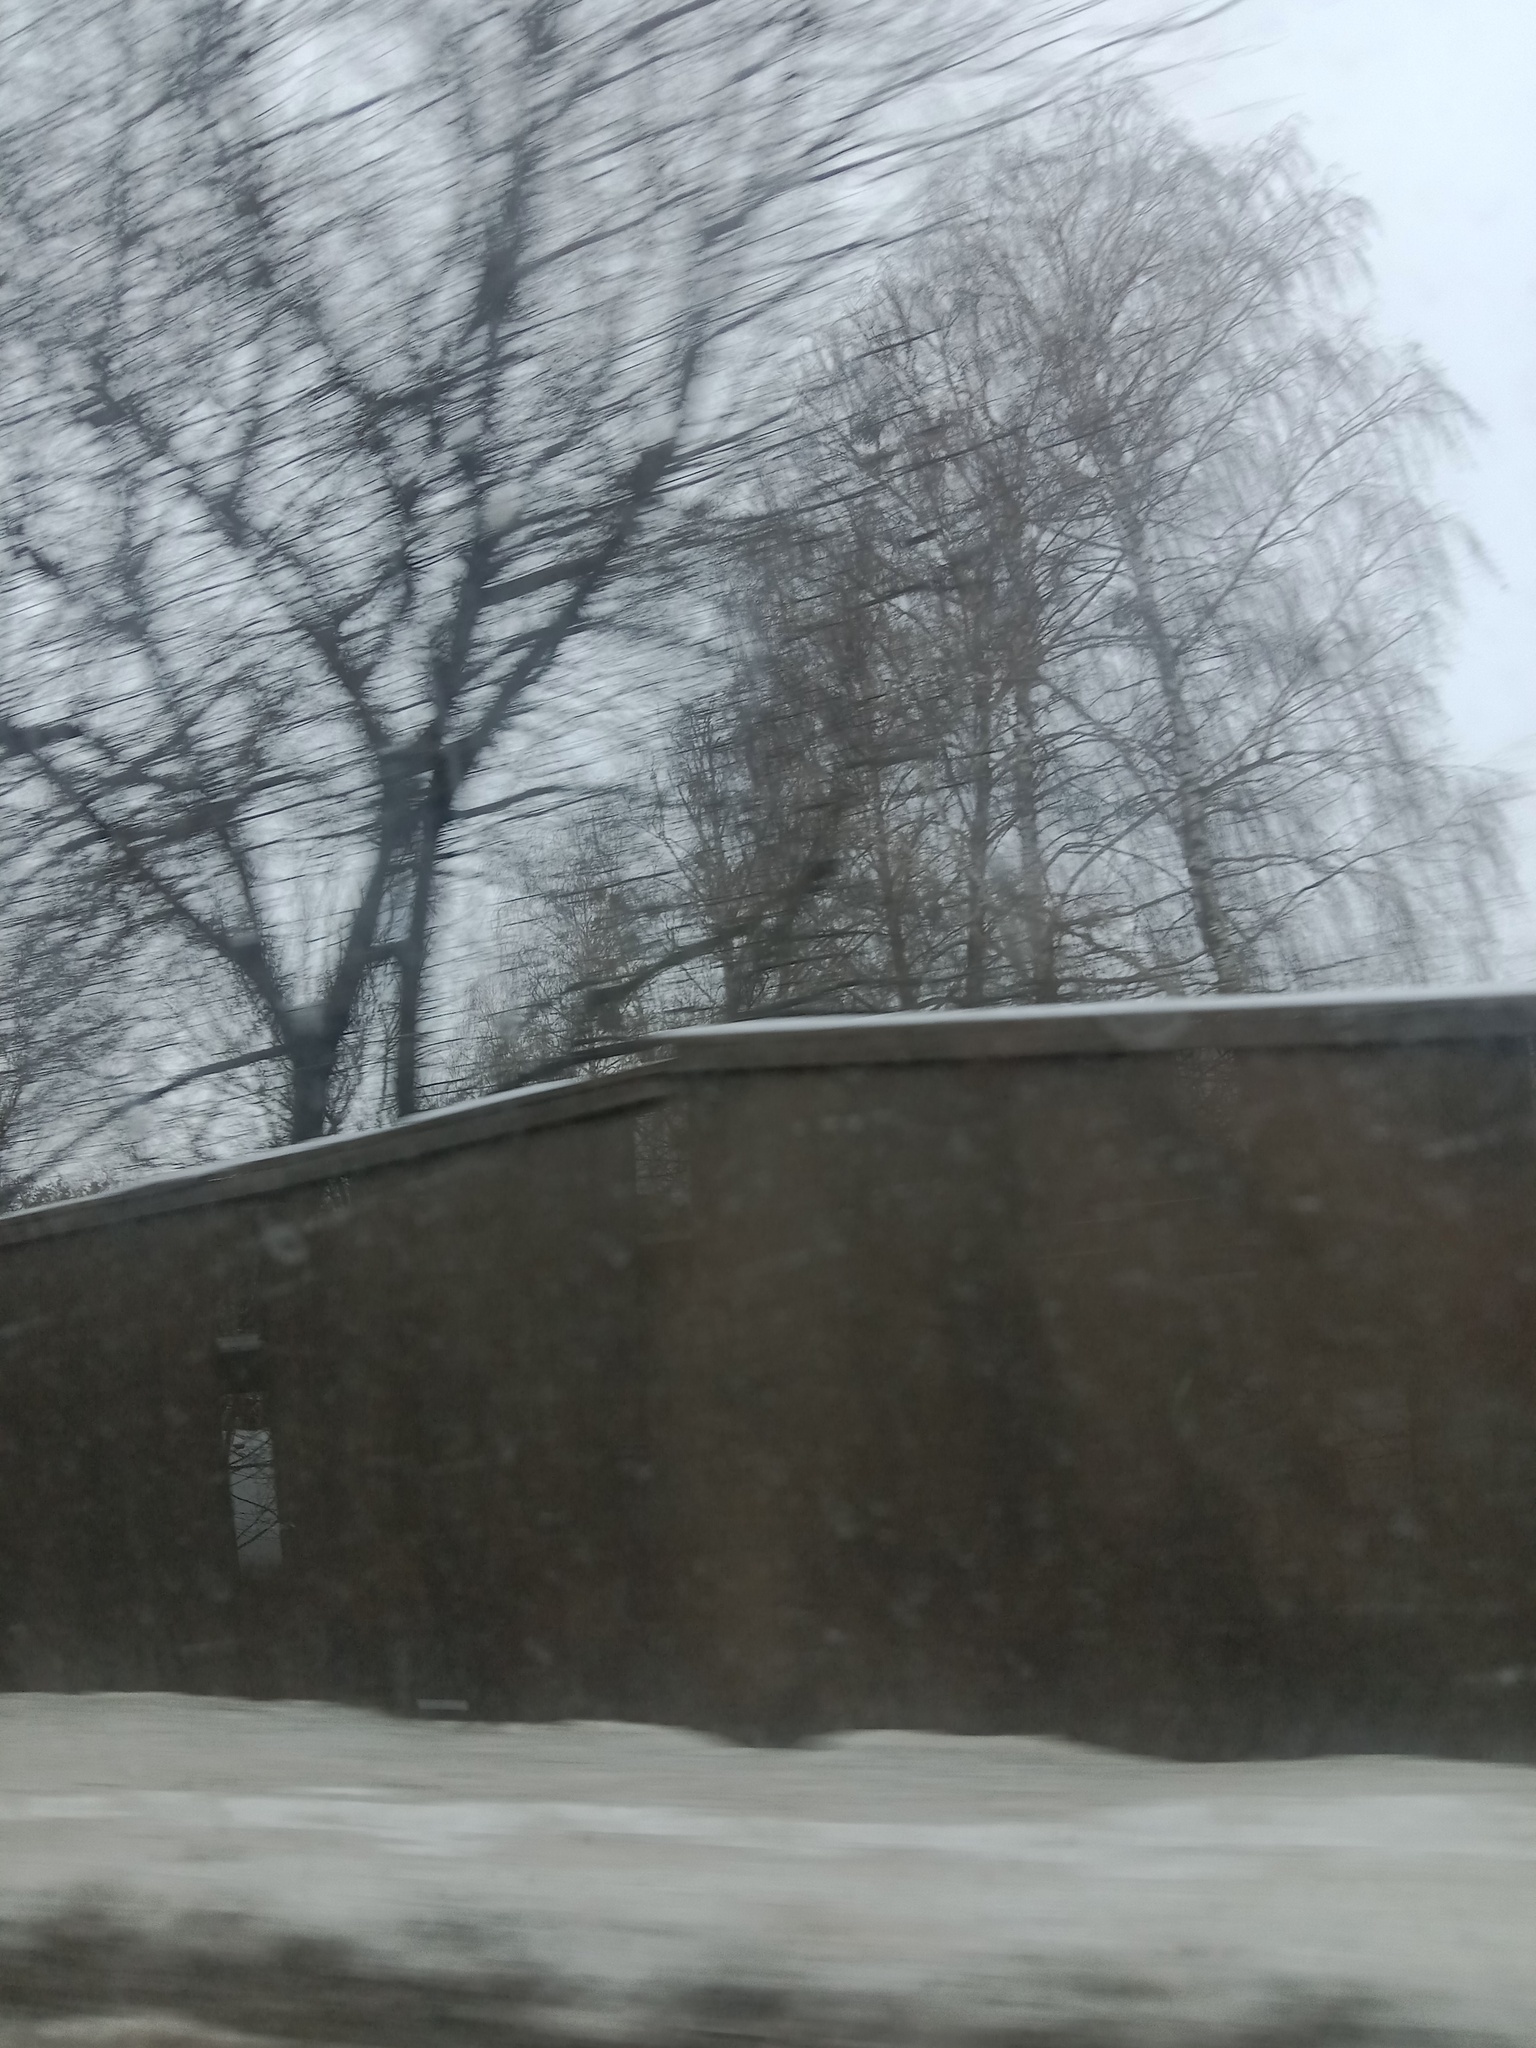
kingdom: Plantae
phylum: Tracheophyta
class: Magnoliopsida
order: Santalales
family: Viscaceae
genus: Viscum
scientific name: Viscum album
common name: Mistletoe
